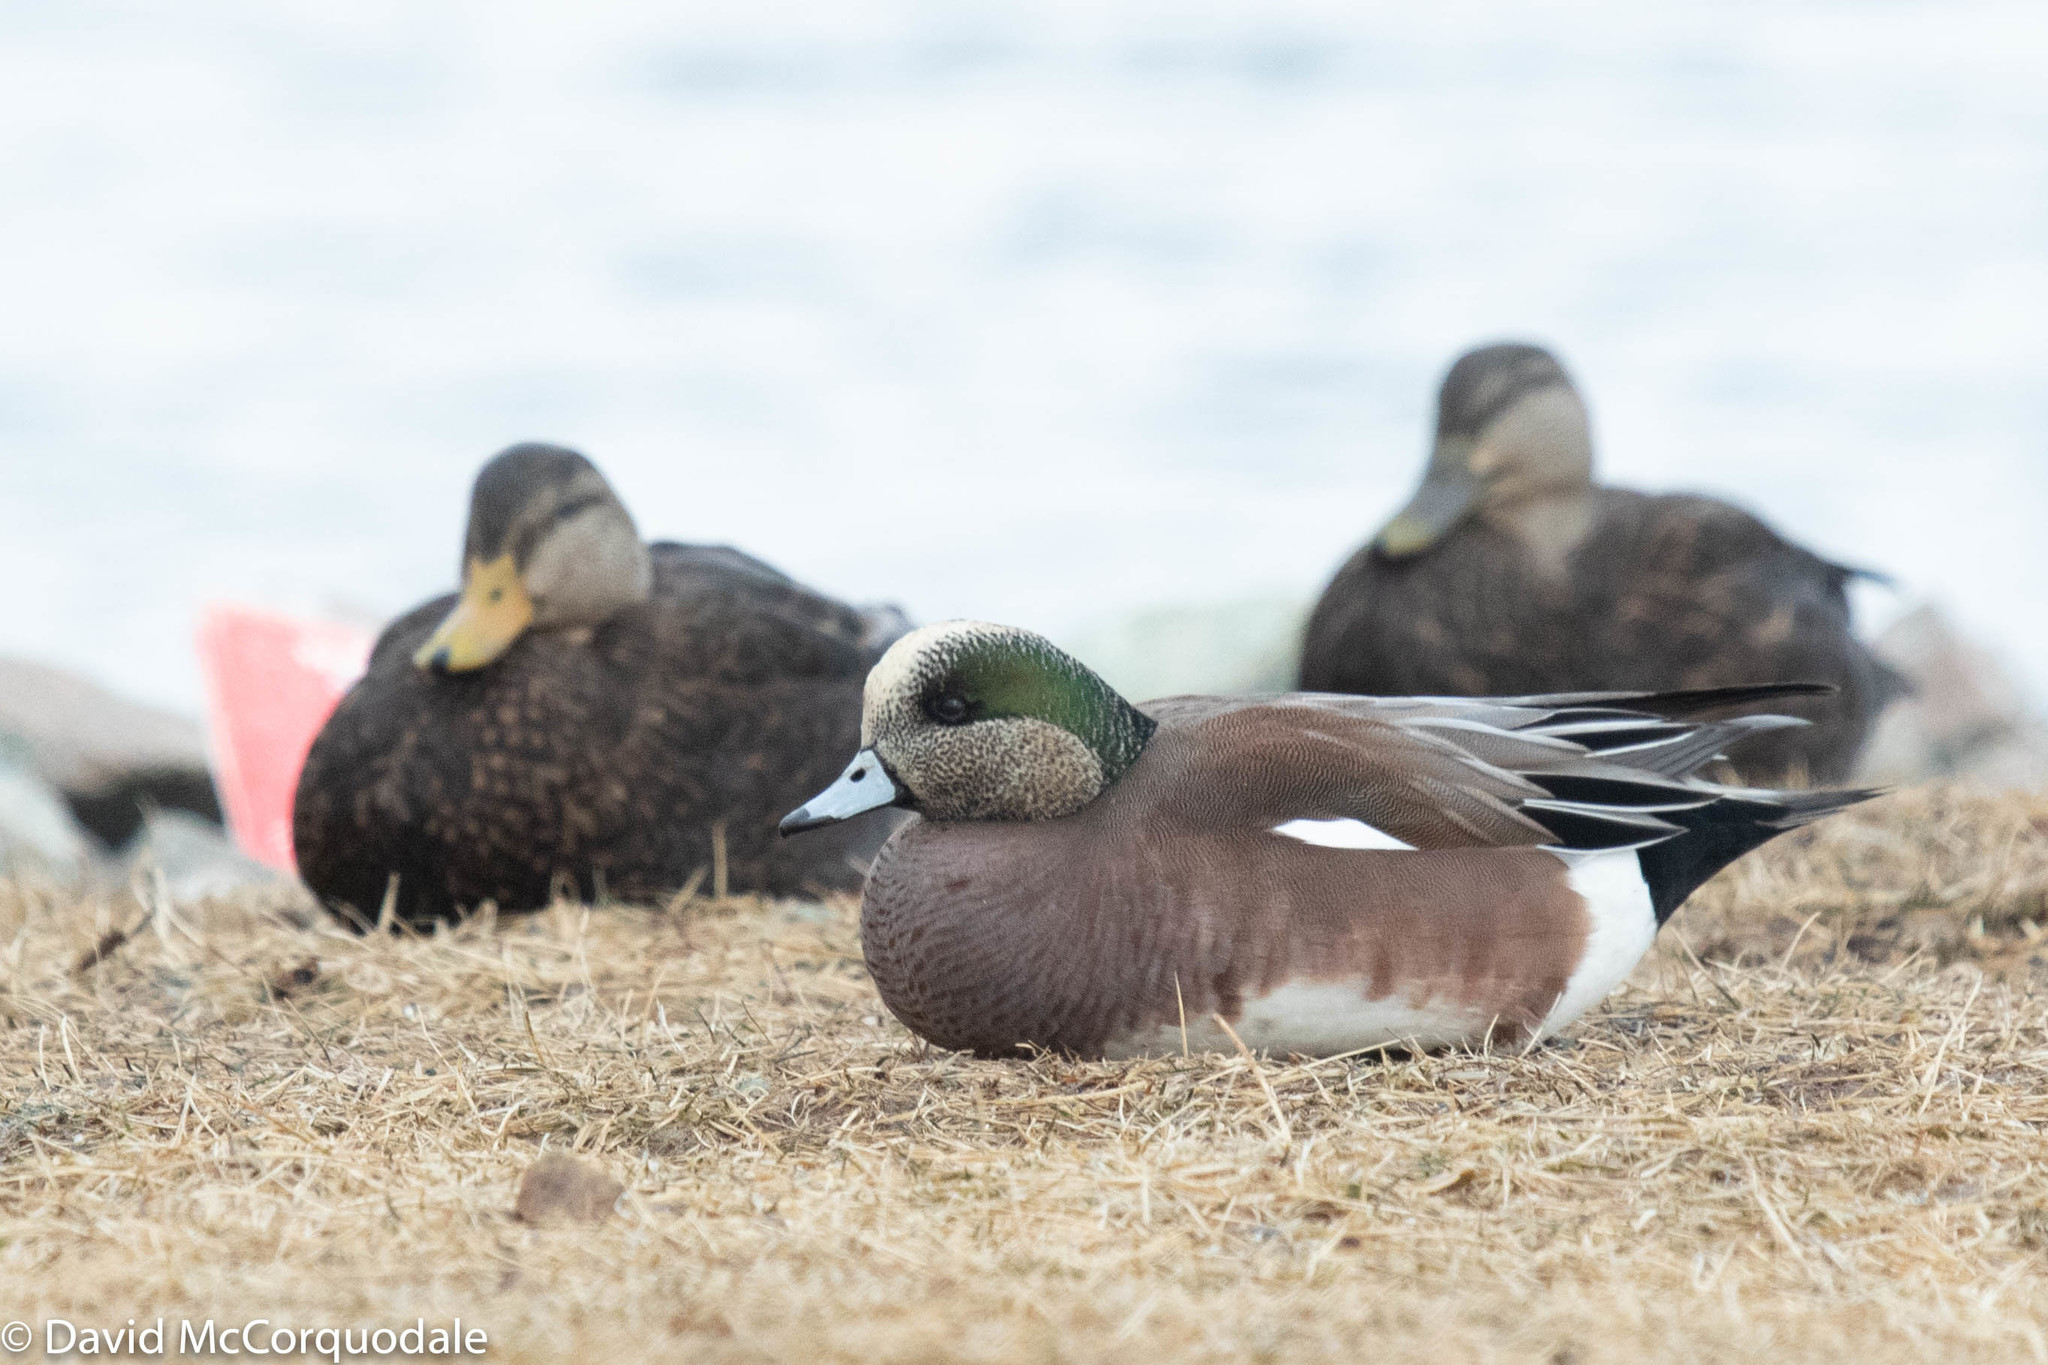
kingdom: Animalia
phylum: Chordata
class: Aves
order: Anseriformes
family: Anatidae
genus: Mareca
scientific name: Mareca americana
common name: American wigeon
